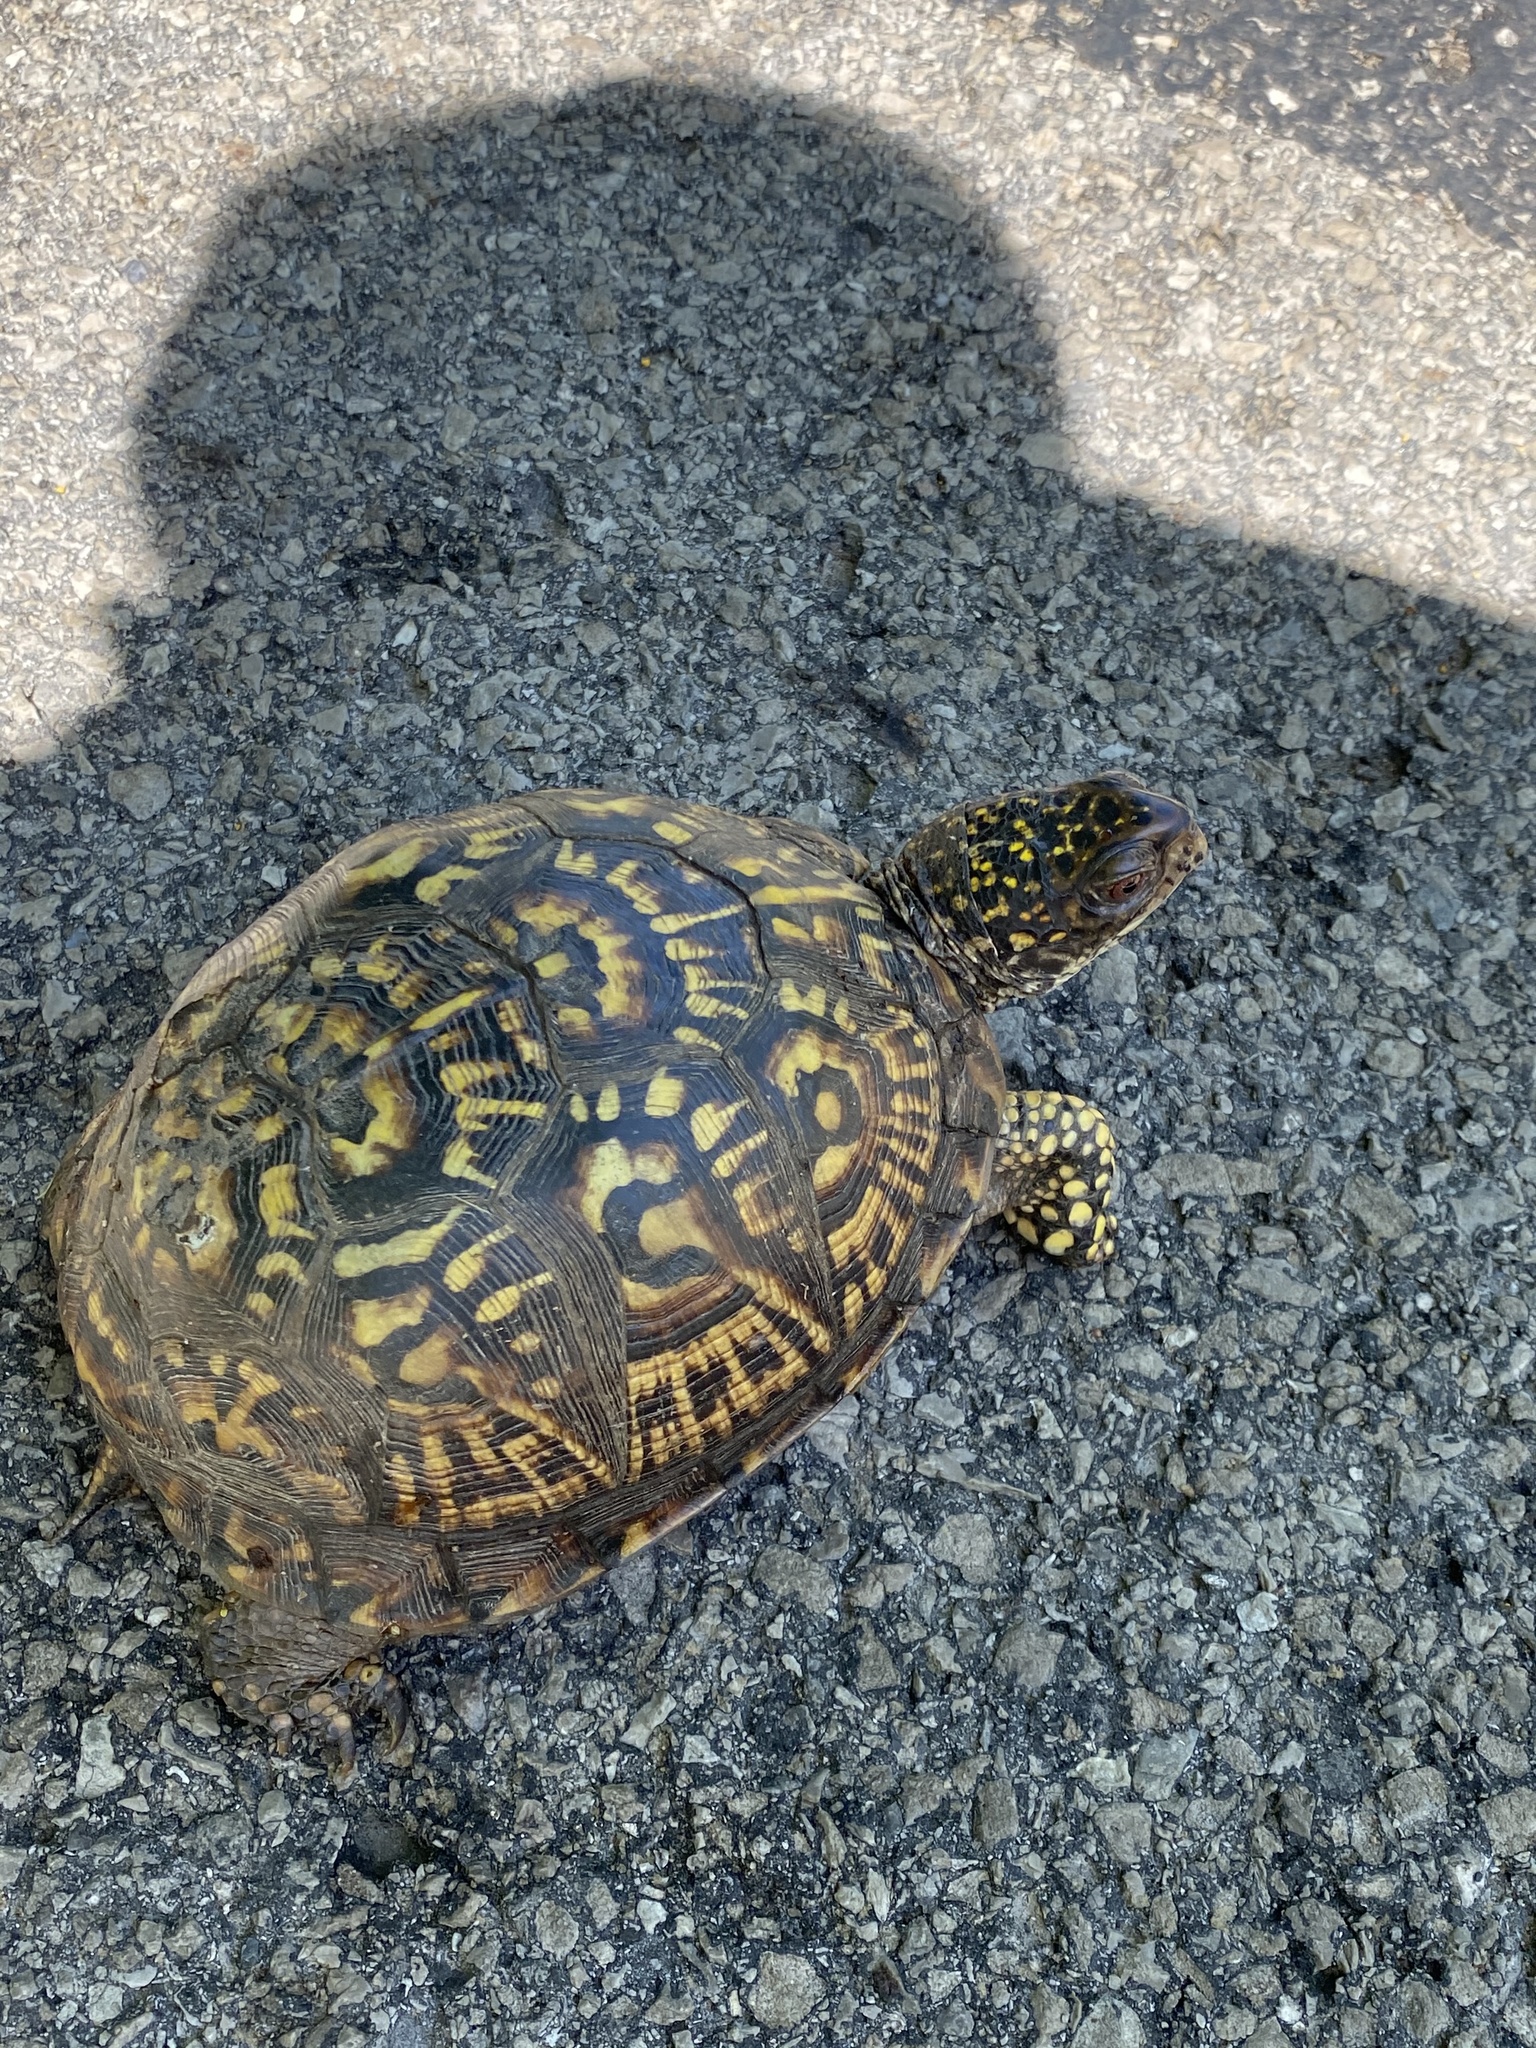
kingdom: Animalia
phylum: Chordata
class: Testudines
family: Emydidae
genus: Terrapene
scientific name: Terrapene carolina
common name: Common box turtle
